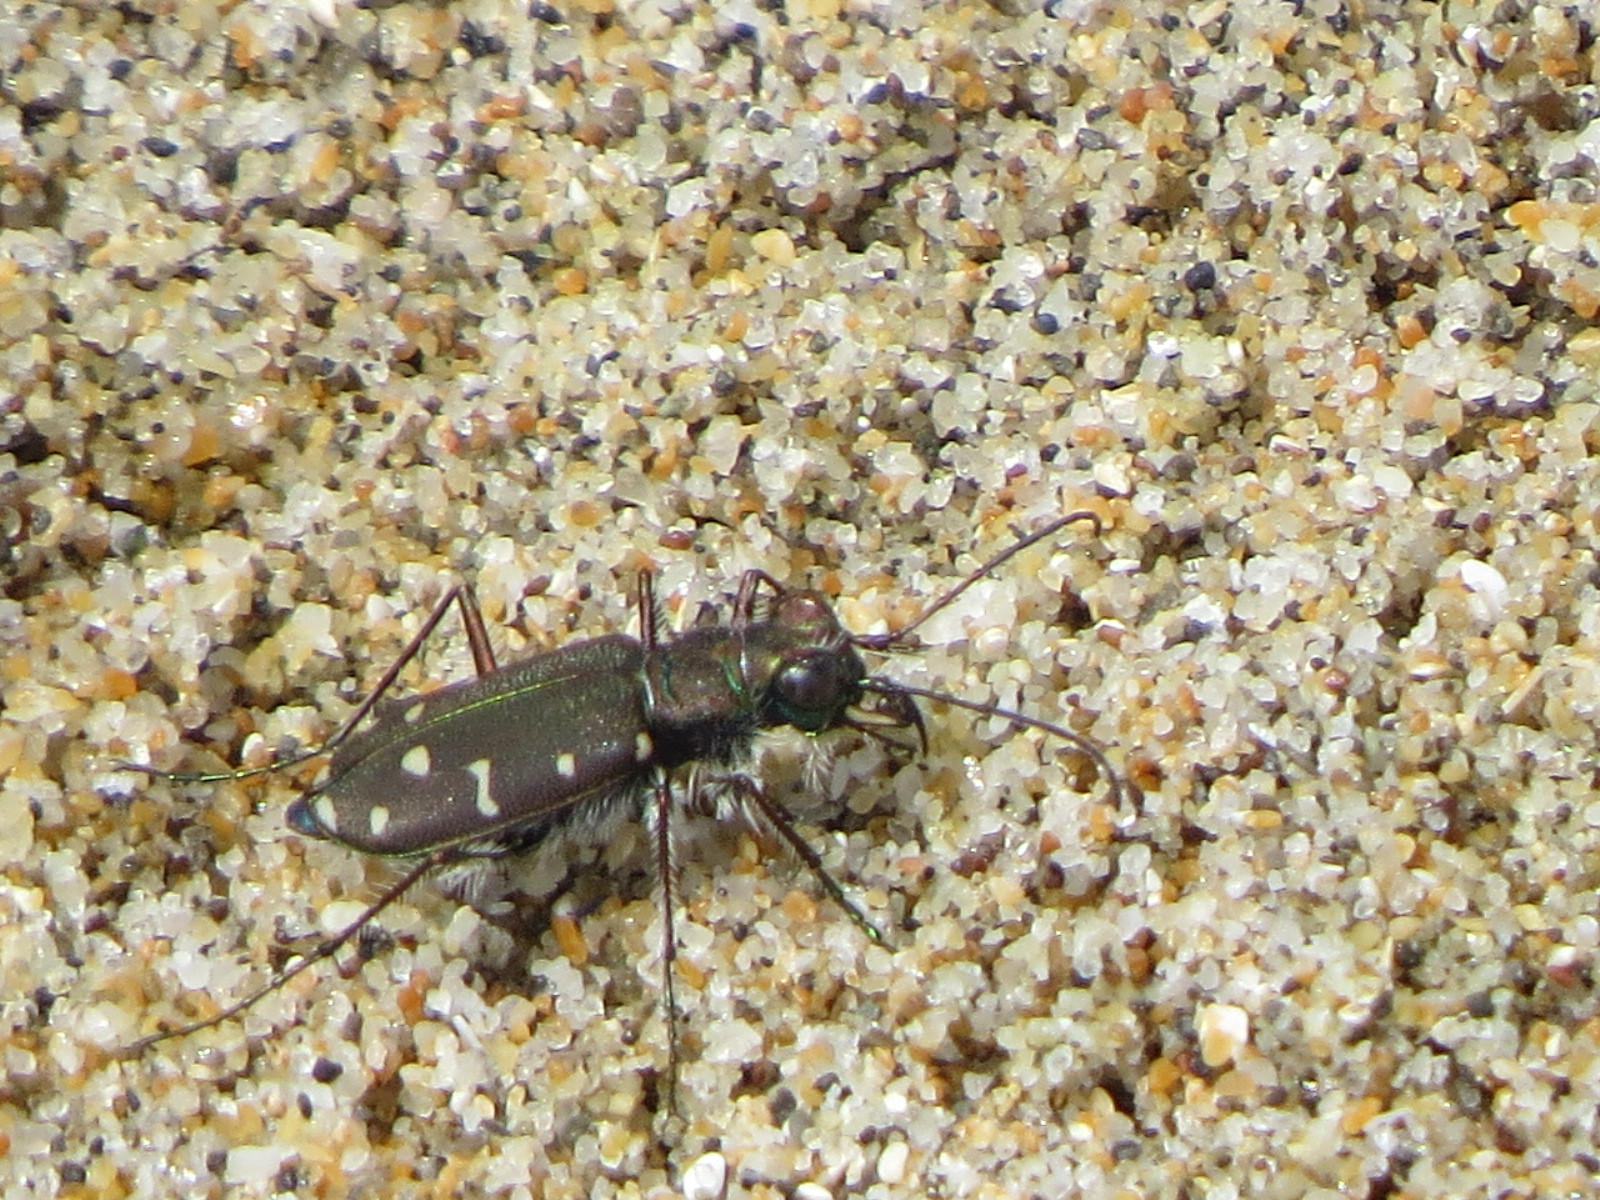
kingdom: Animalia
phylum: Arthropoda
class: Insecta
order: Coleoptera
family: Carabidae
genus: Cicindela
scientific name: Cicindela oregona
